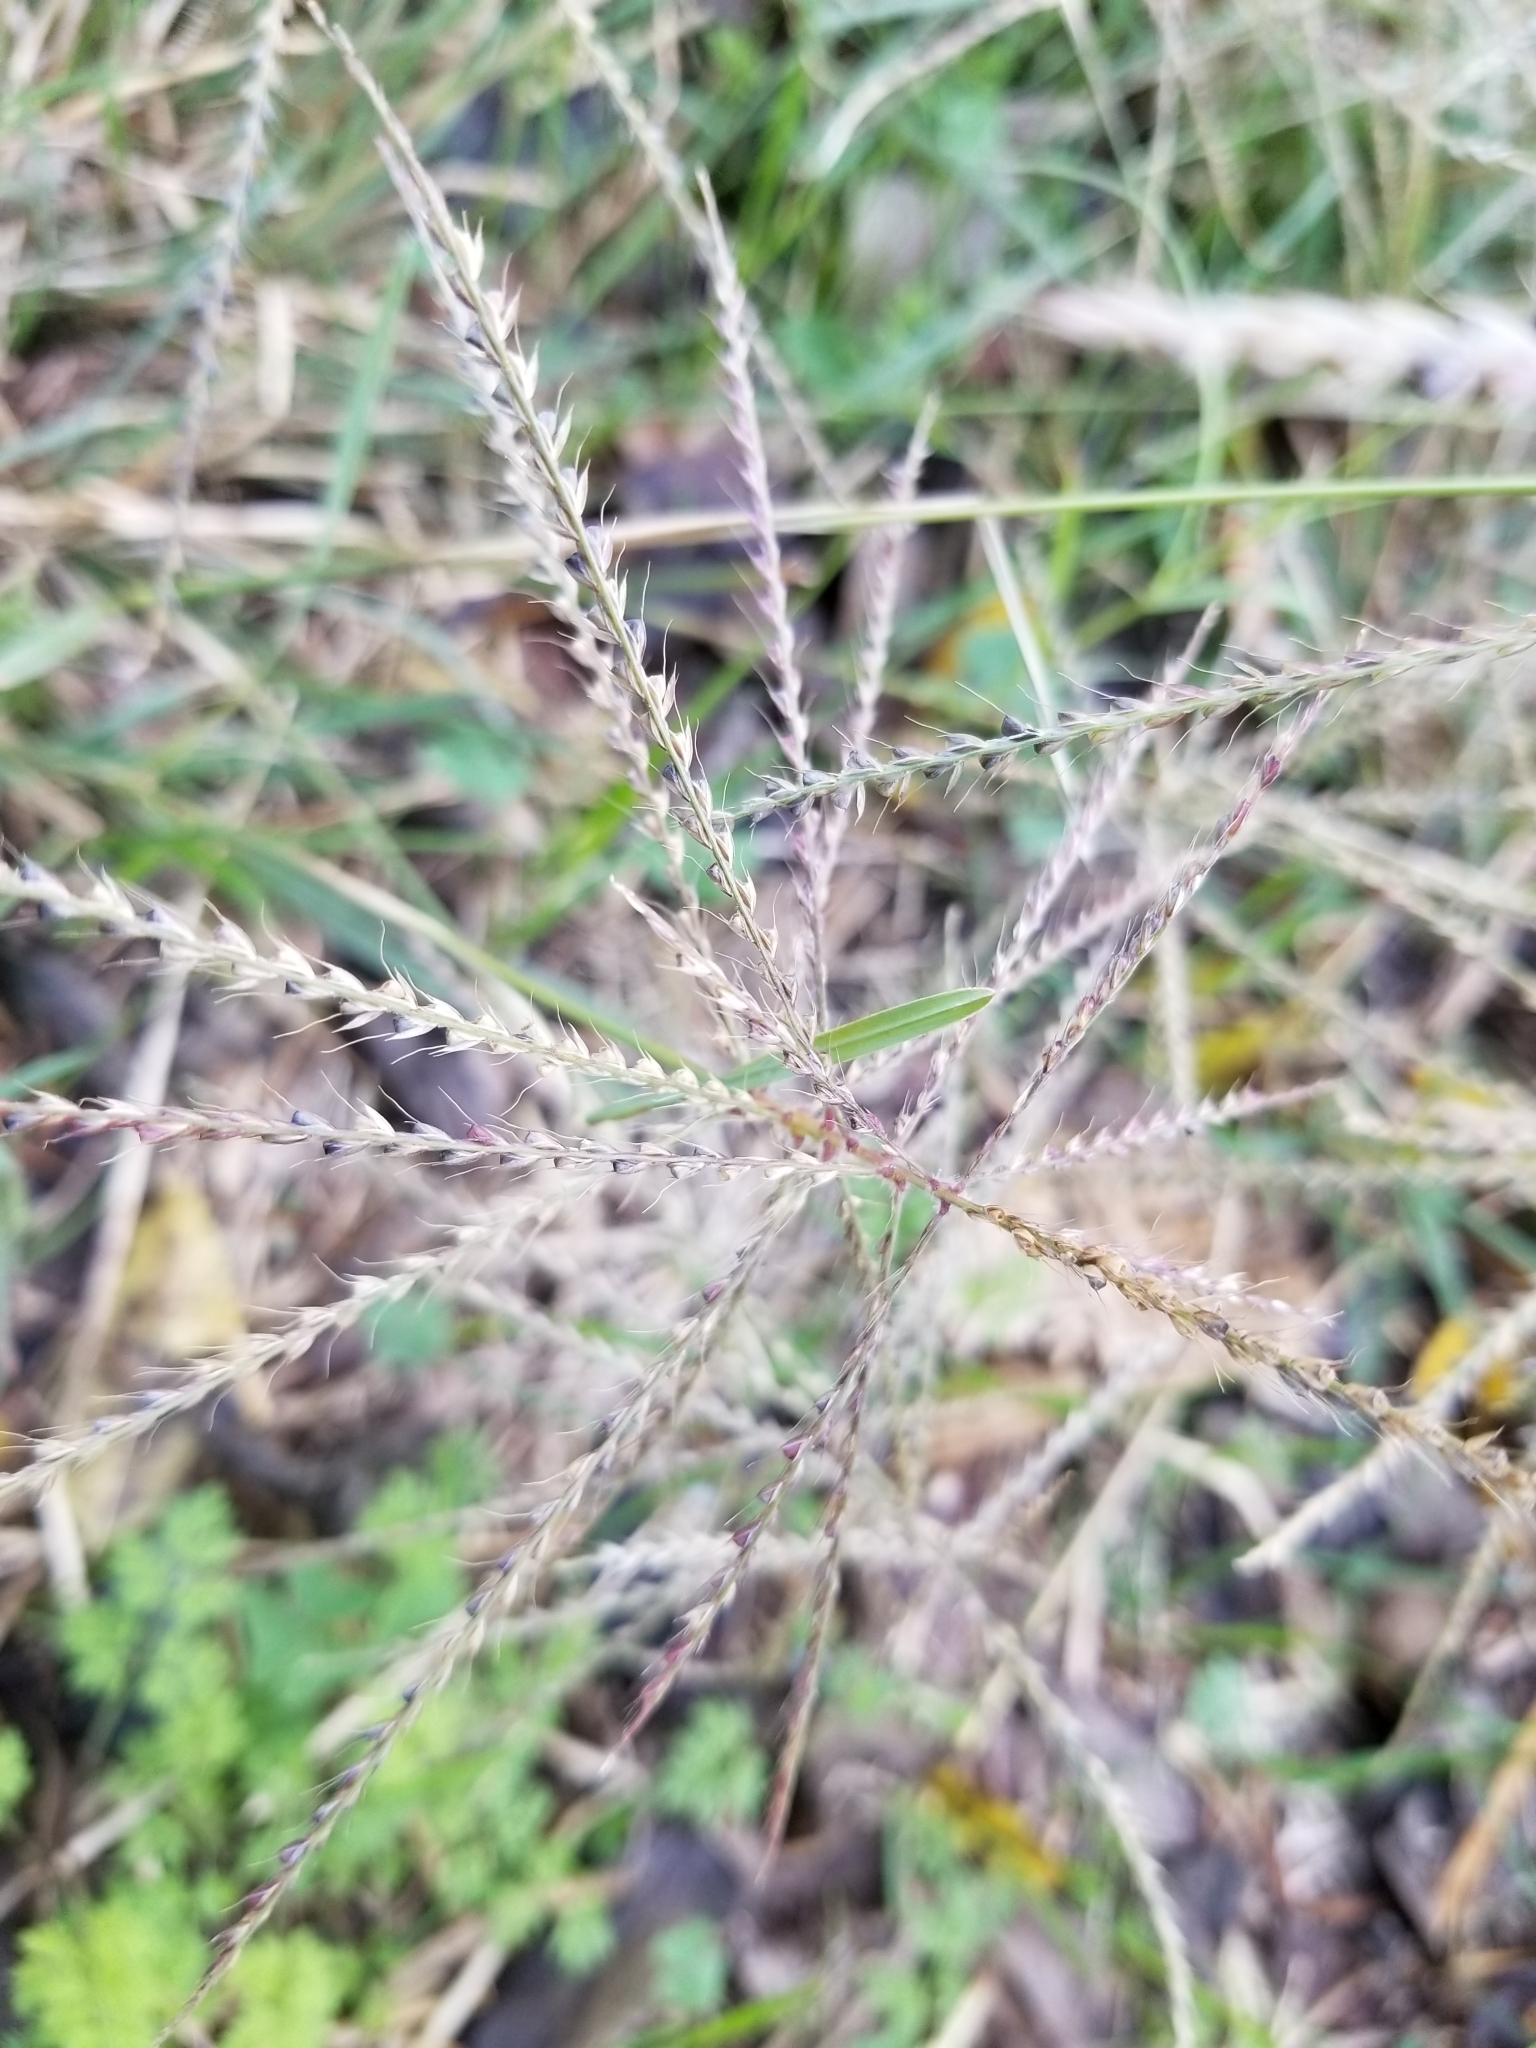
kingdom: Plantae
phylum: Tracheophyta
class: Liliopsida
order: Poales
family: Poaceae
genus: Chloris
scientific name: Chloris verticillata
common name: Tumble windmill grass
